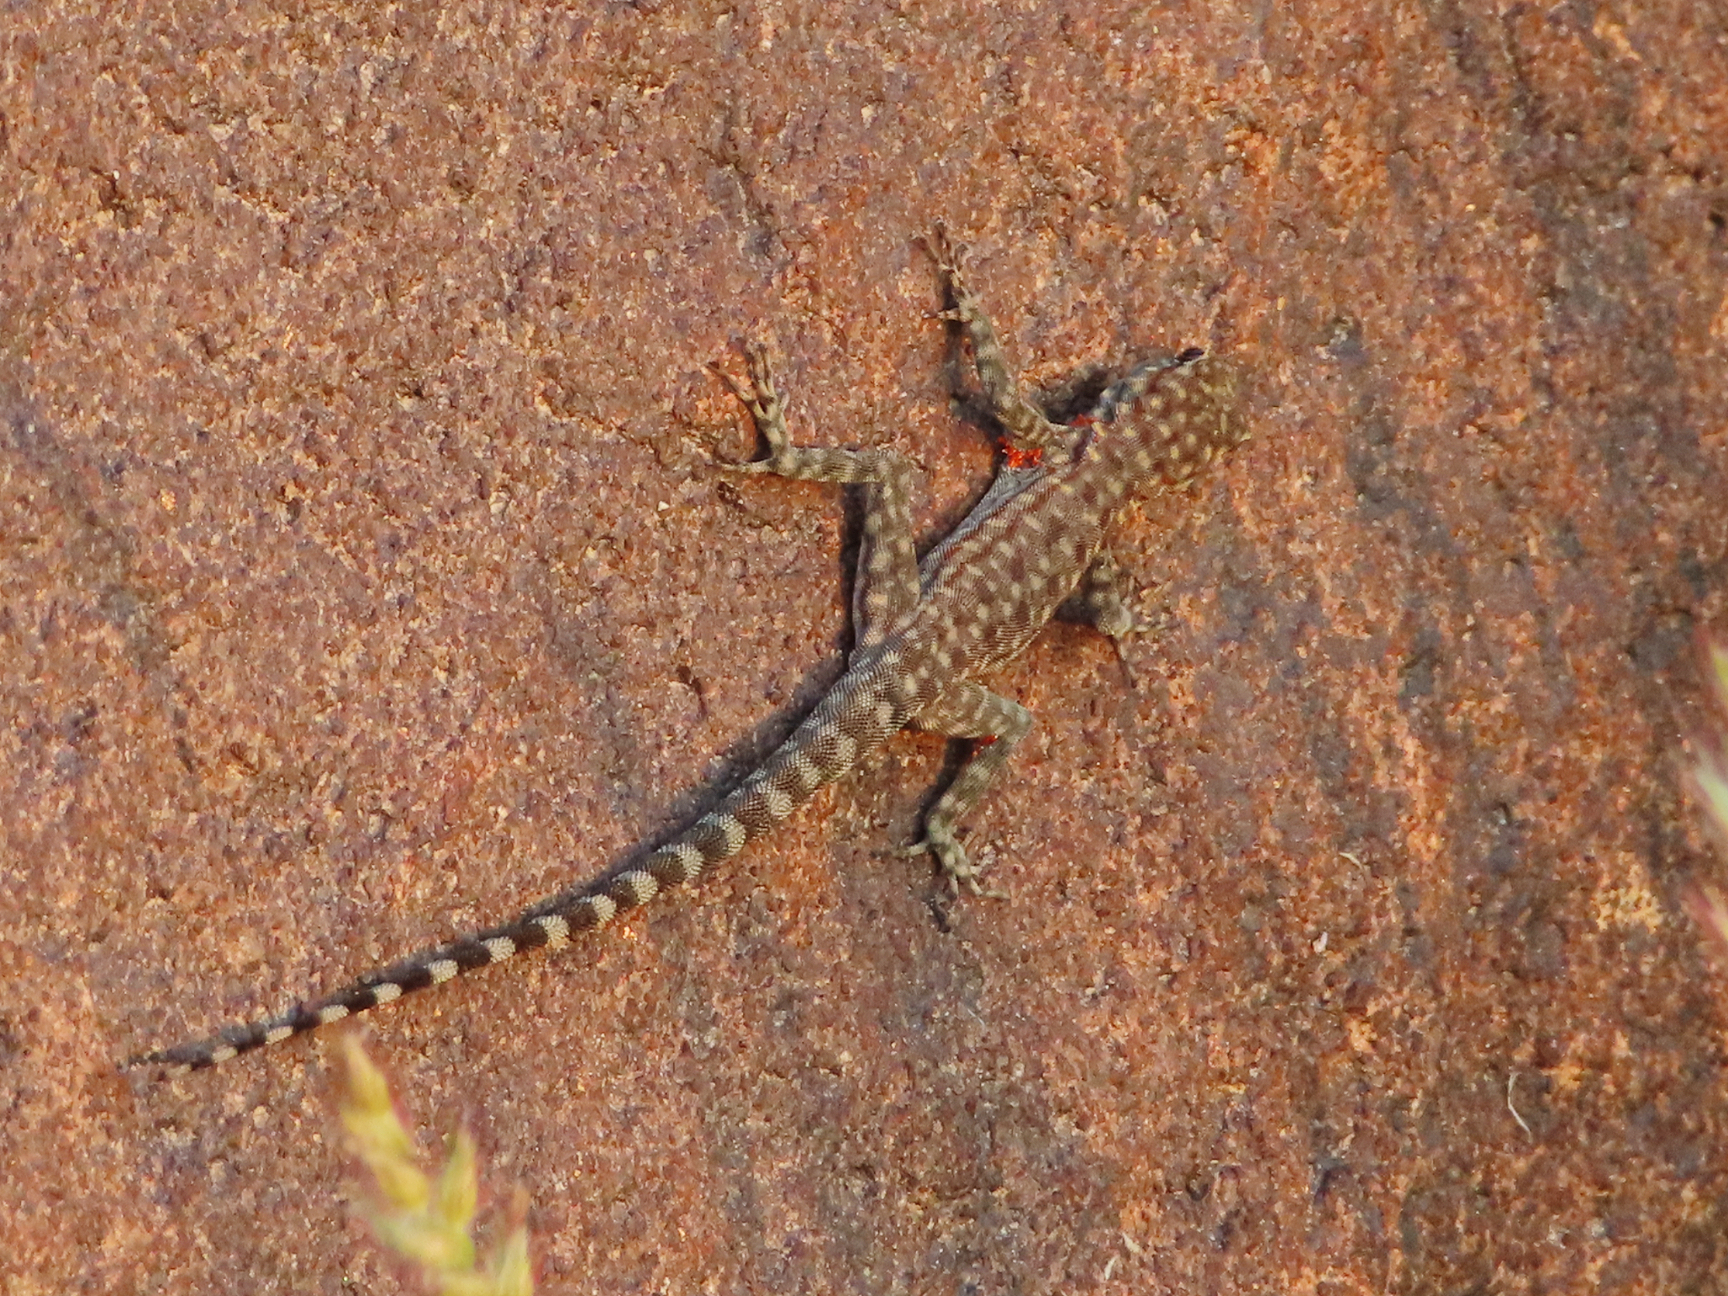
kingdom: Animalia
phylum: Chordata
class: Squamata
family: Sphaerodactylidae
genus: Pristurus
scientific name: Pristurus celerrimus
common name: Bar-tailed semaphore gecko
